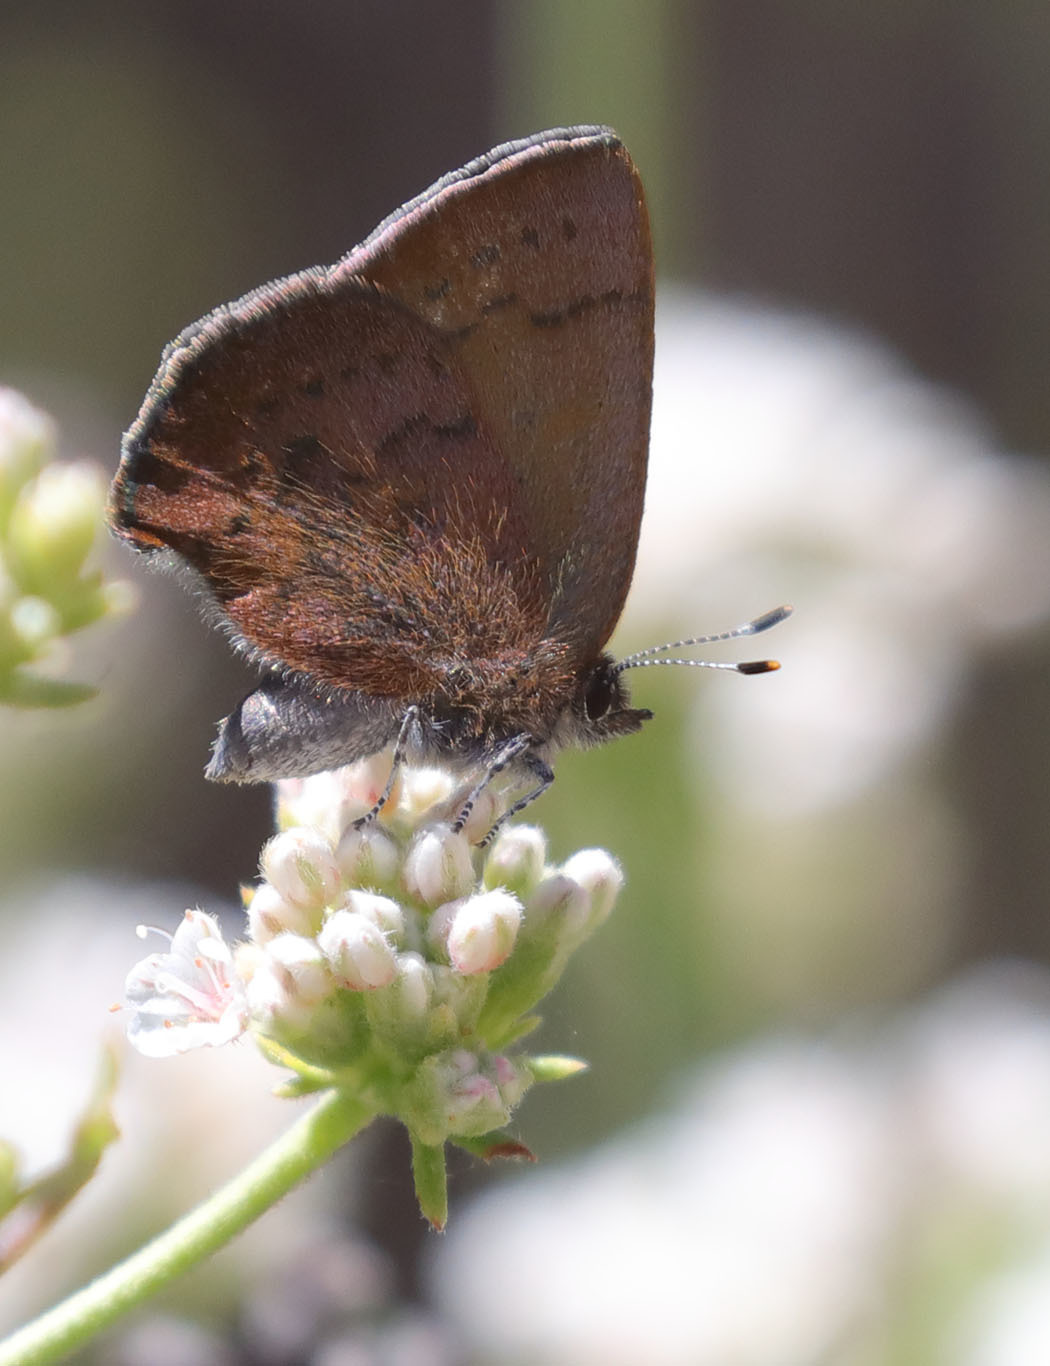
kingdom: Animalia
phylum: Arthropoda
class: Insecta
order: Lepidoptera
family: Lycaenidae
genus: Incisalia
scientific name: Incisalia irioides
